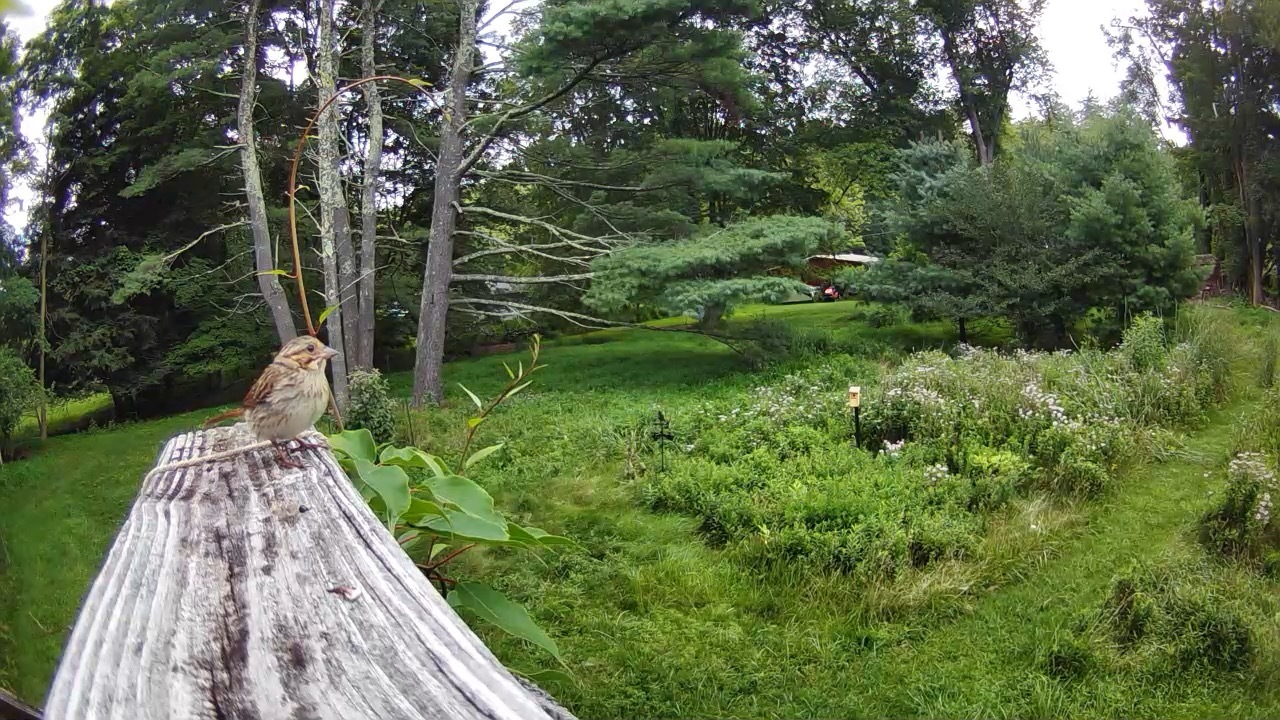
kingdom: Animalia
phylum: Chordata
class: Aves
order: Passeriformes
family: Passerellidae
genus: Melospiza
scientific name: Melospiza melodia
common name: Song sparrow
